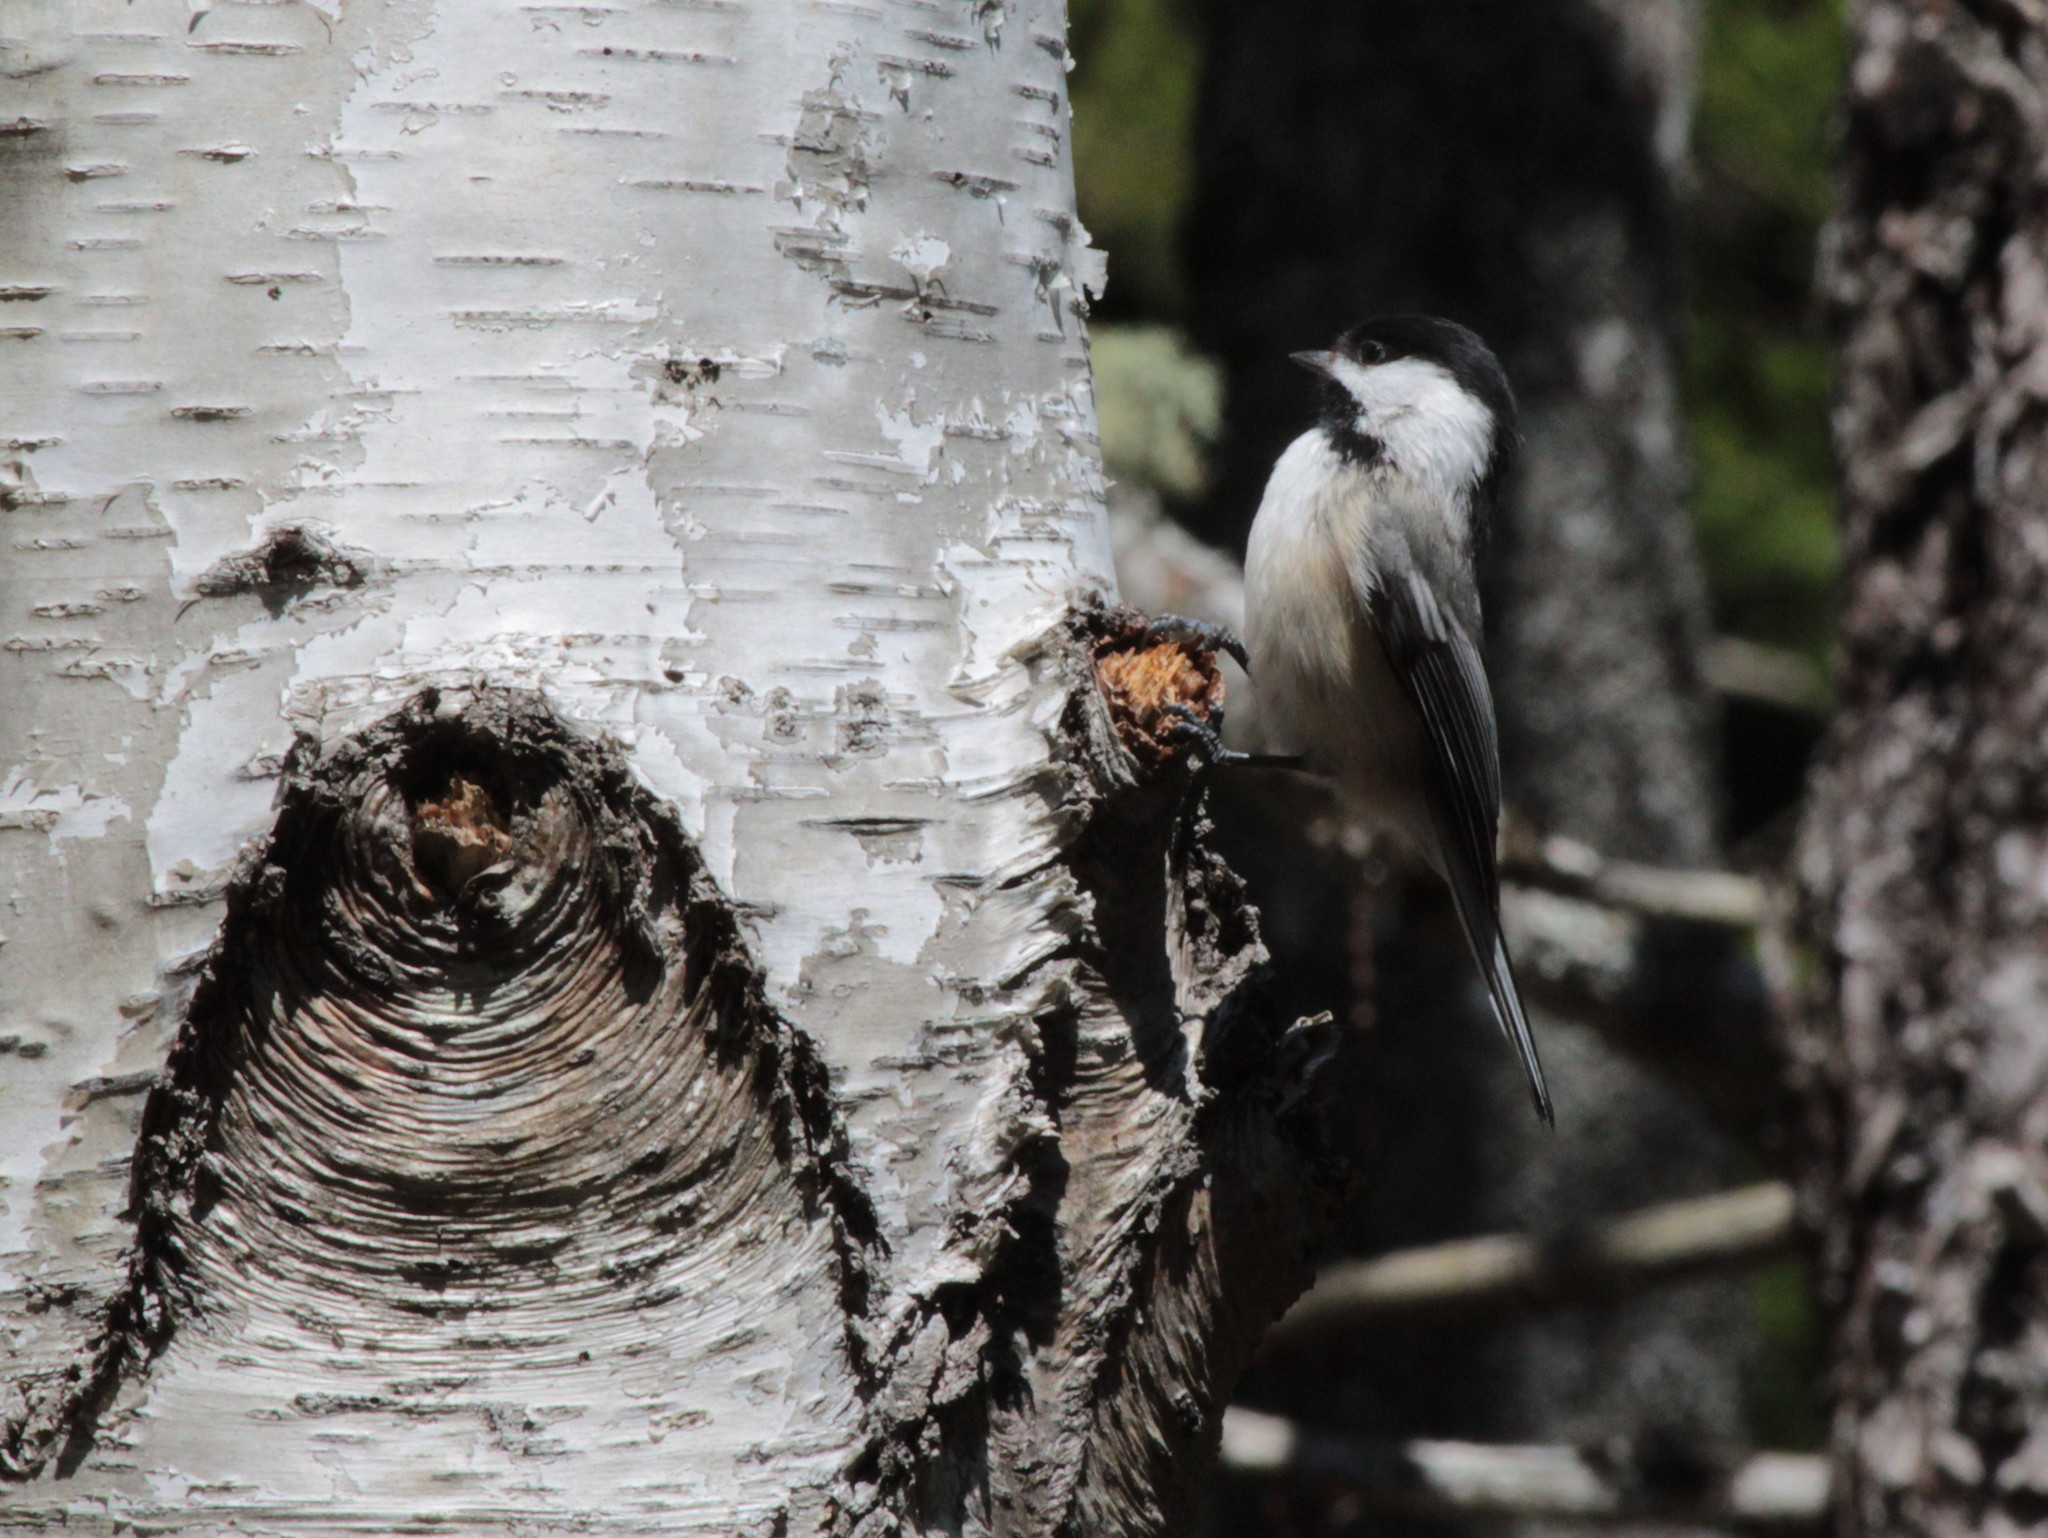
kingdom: Animalia
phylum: Chordata
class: Aves
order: Passeriformes
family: Paridae
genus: Poecile
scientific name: Poecile atricapillus
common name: Black-capped chickadee
